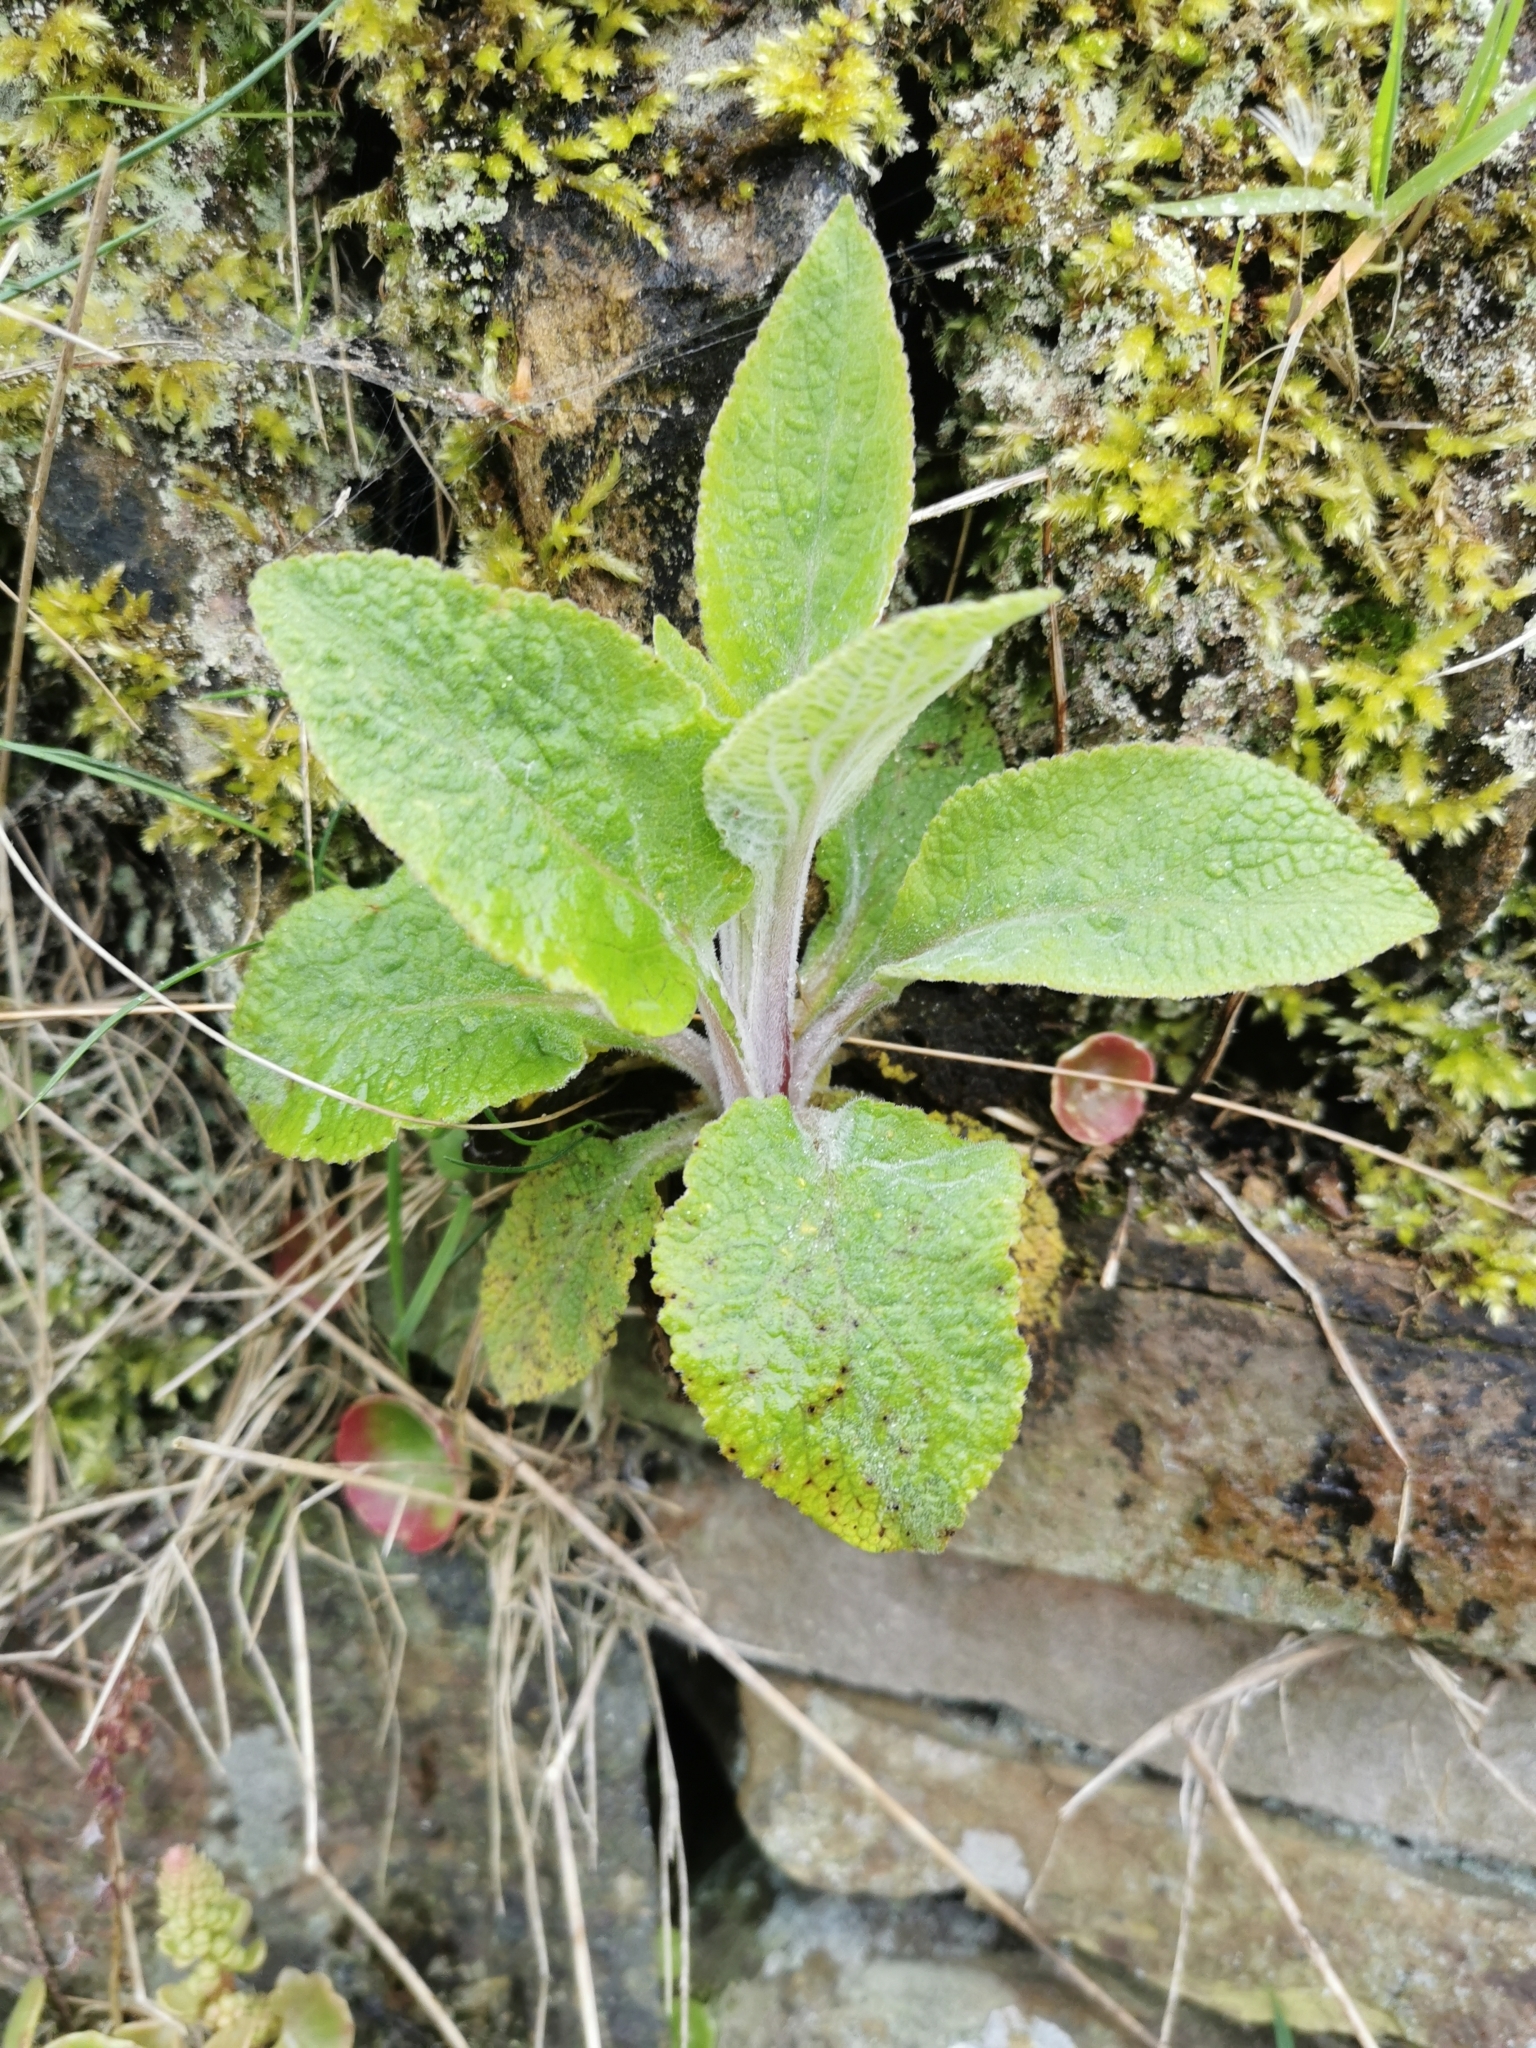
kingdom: Plantae
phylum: Tracheophyta
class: Magnoliopsida
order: Lamiales
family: Plantaginaceae
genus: Digitalis
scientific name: Digitalis purpurea
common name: Foxglove
